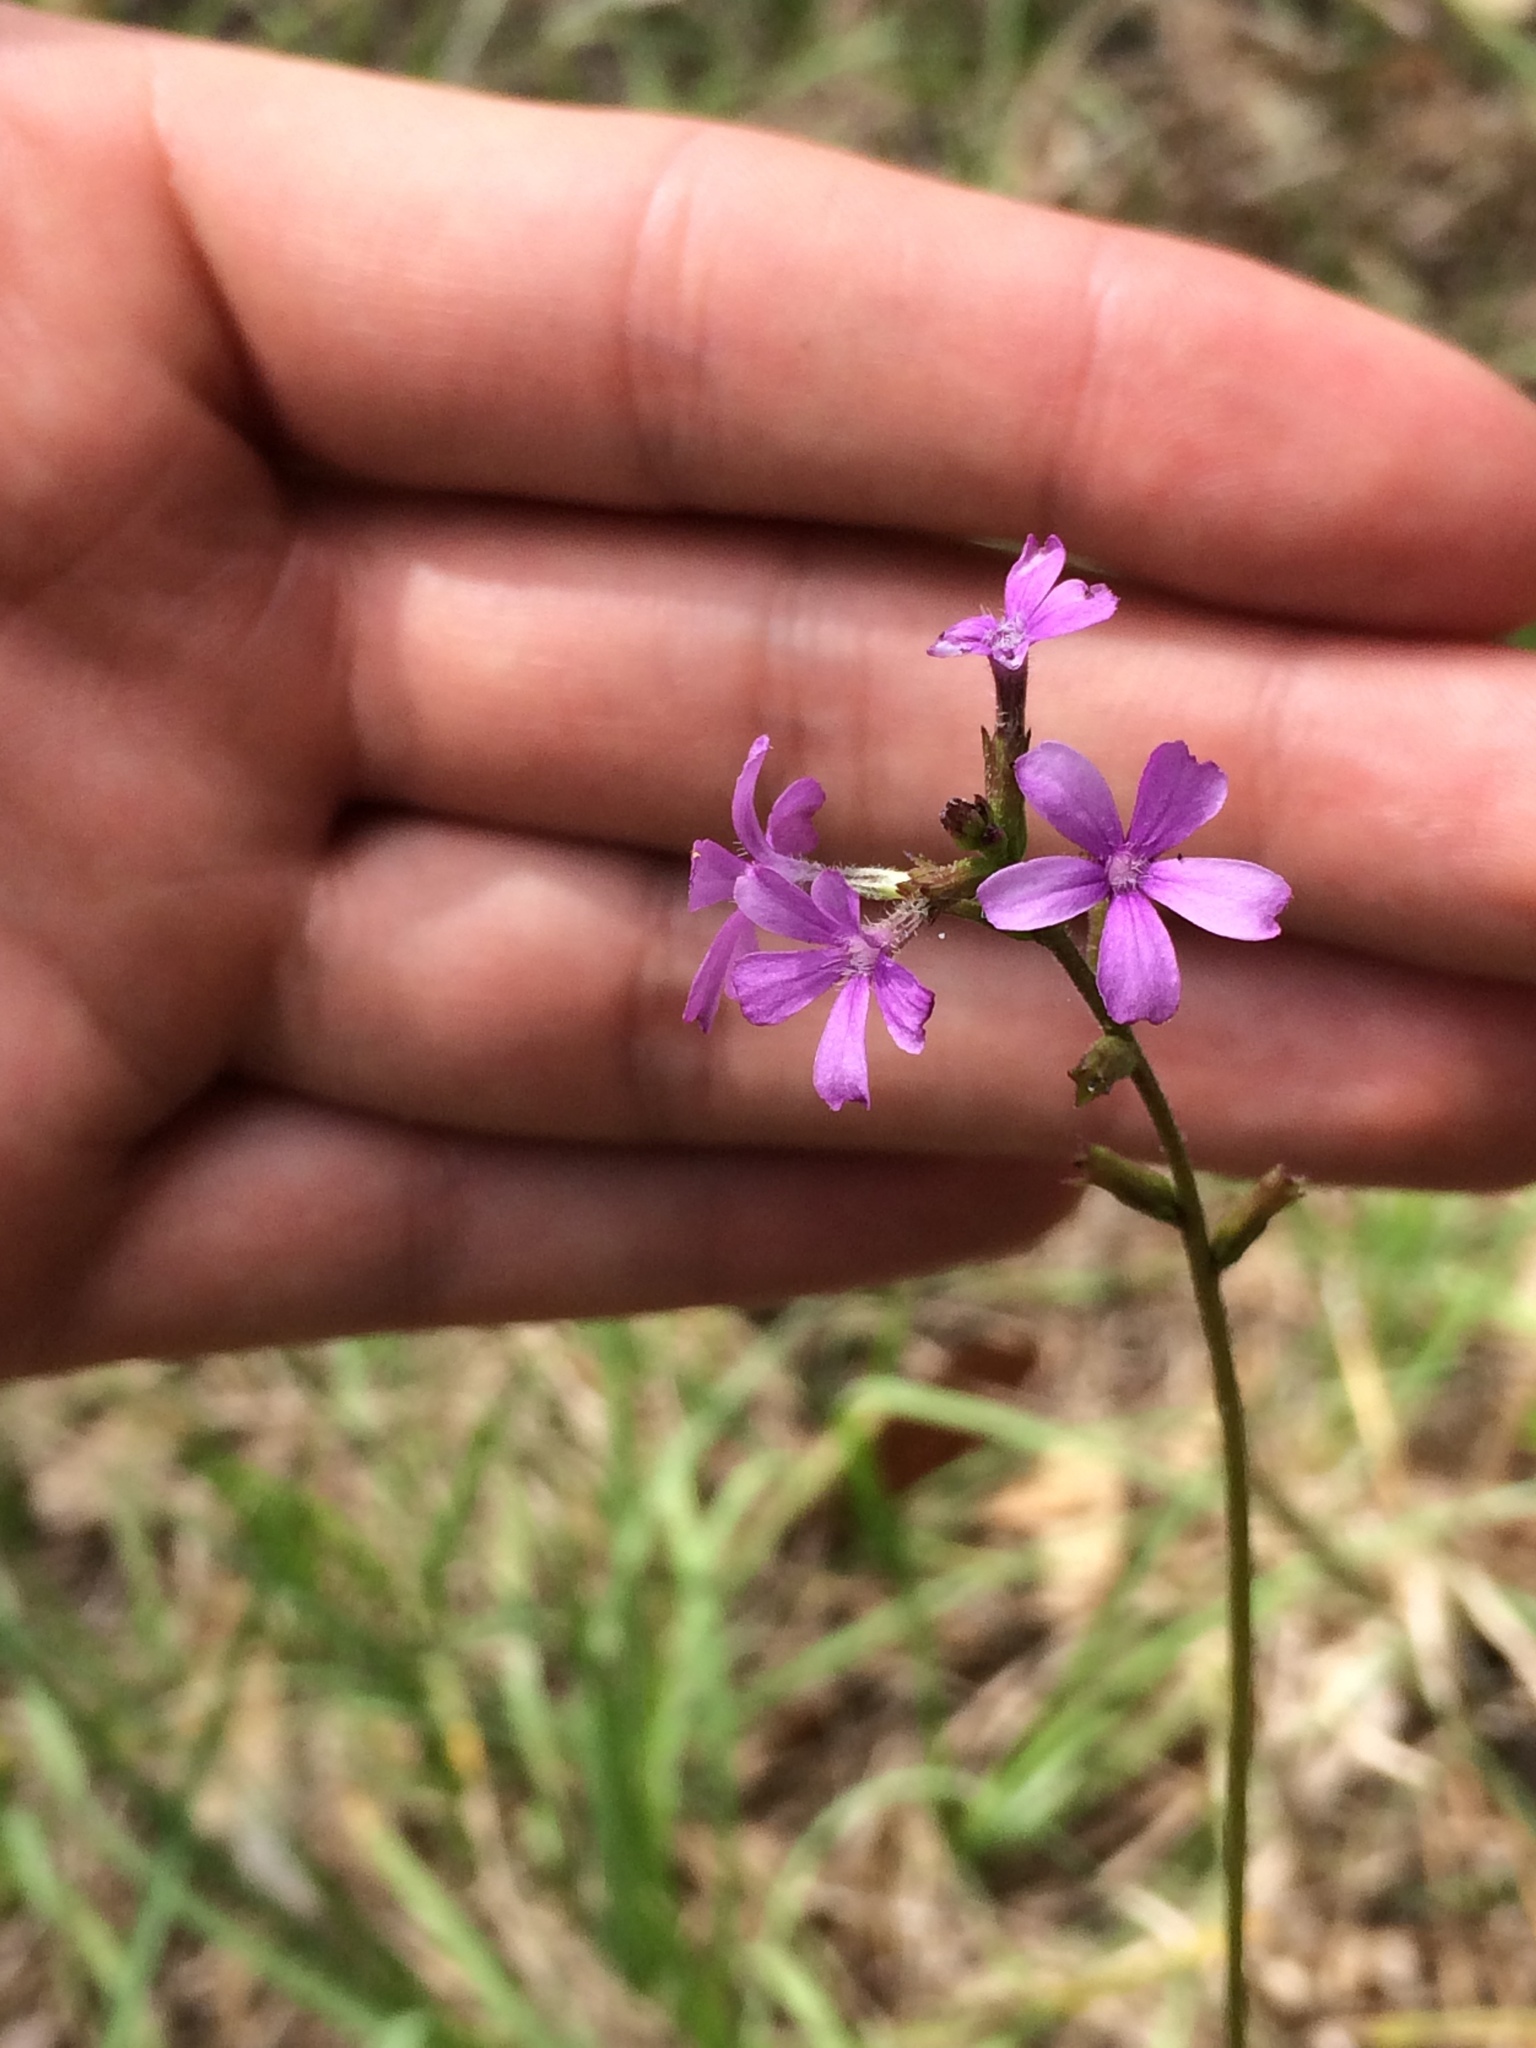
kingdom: Plantae
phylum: Tracheophyta
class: Magnoliopsida
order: Lamiales
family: Orobanchaceae
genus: Buchnera
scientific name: Buchnera floridana
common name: Florida bluehearts
